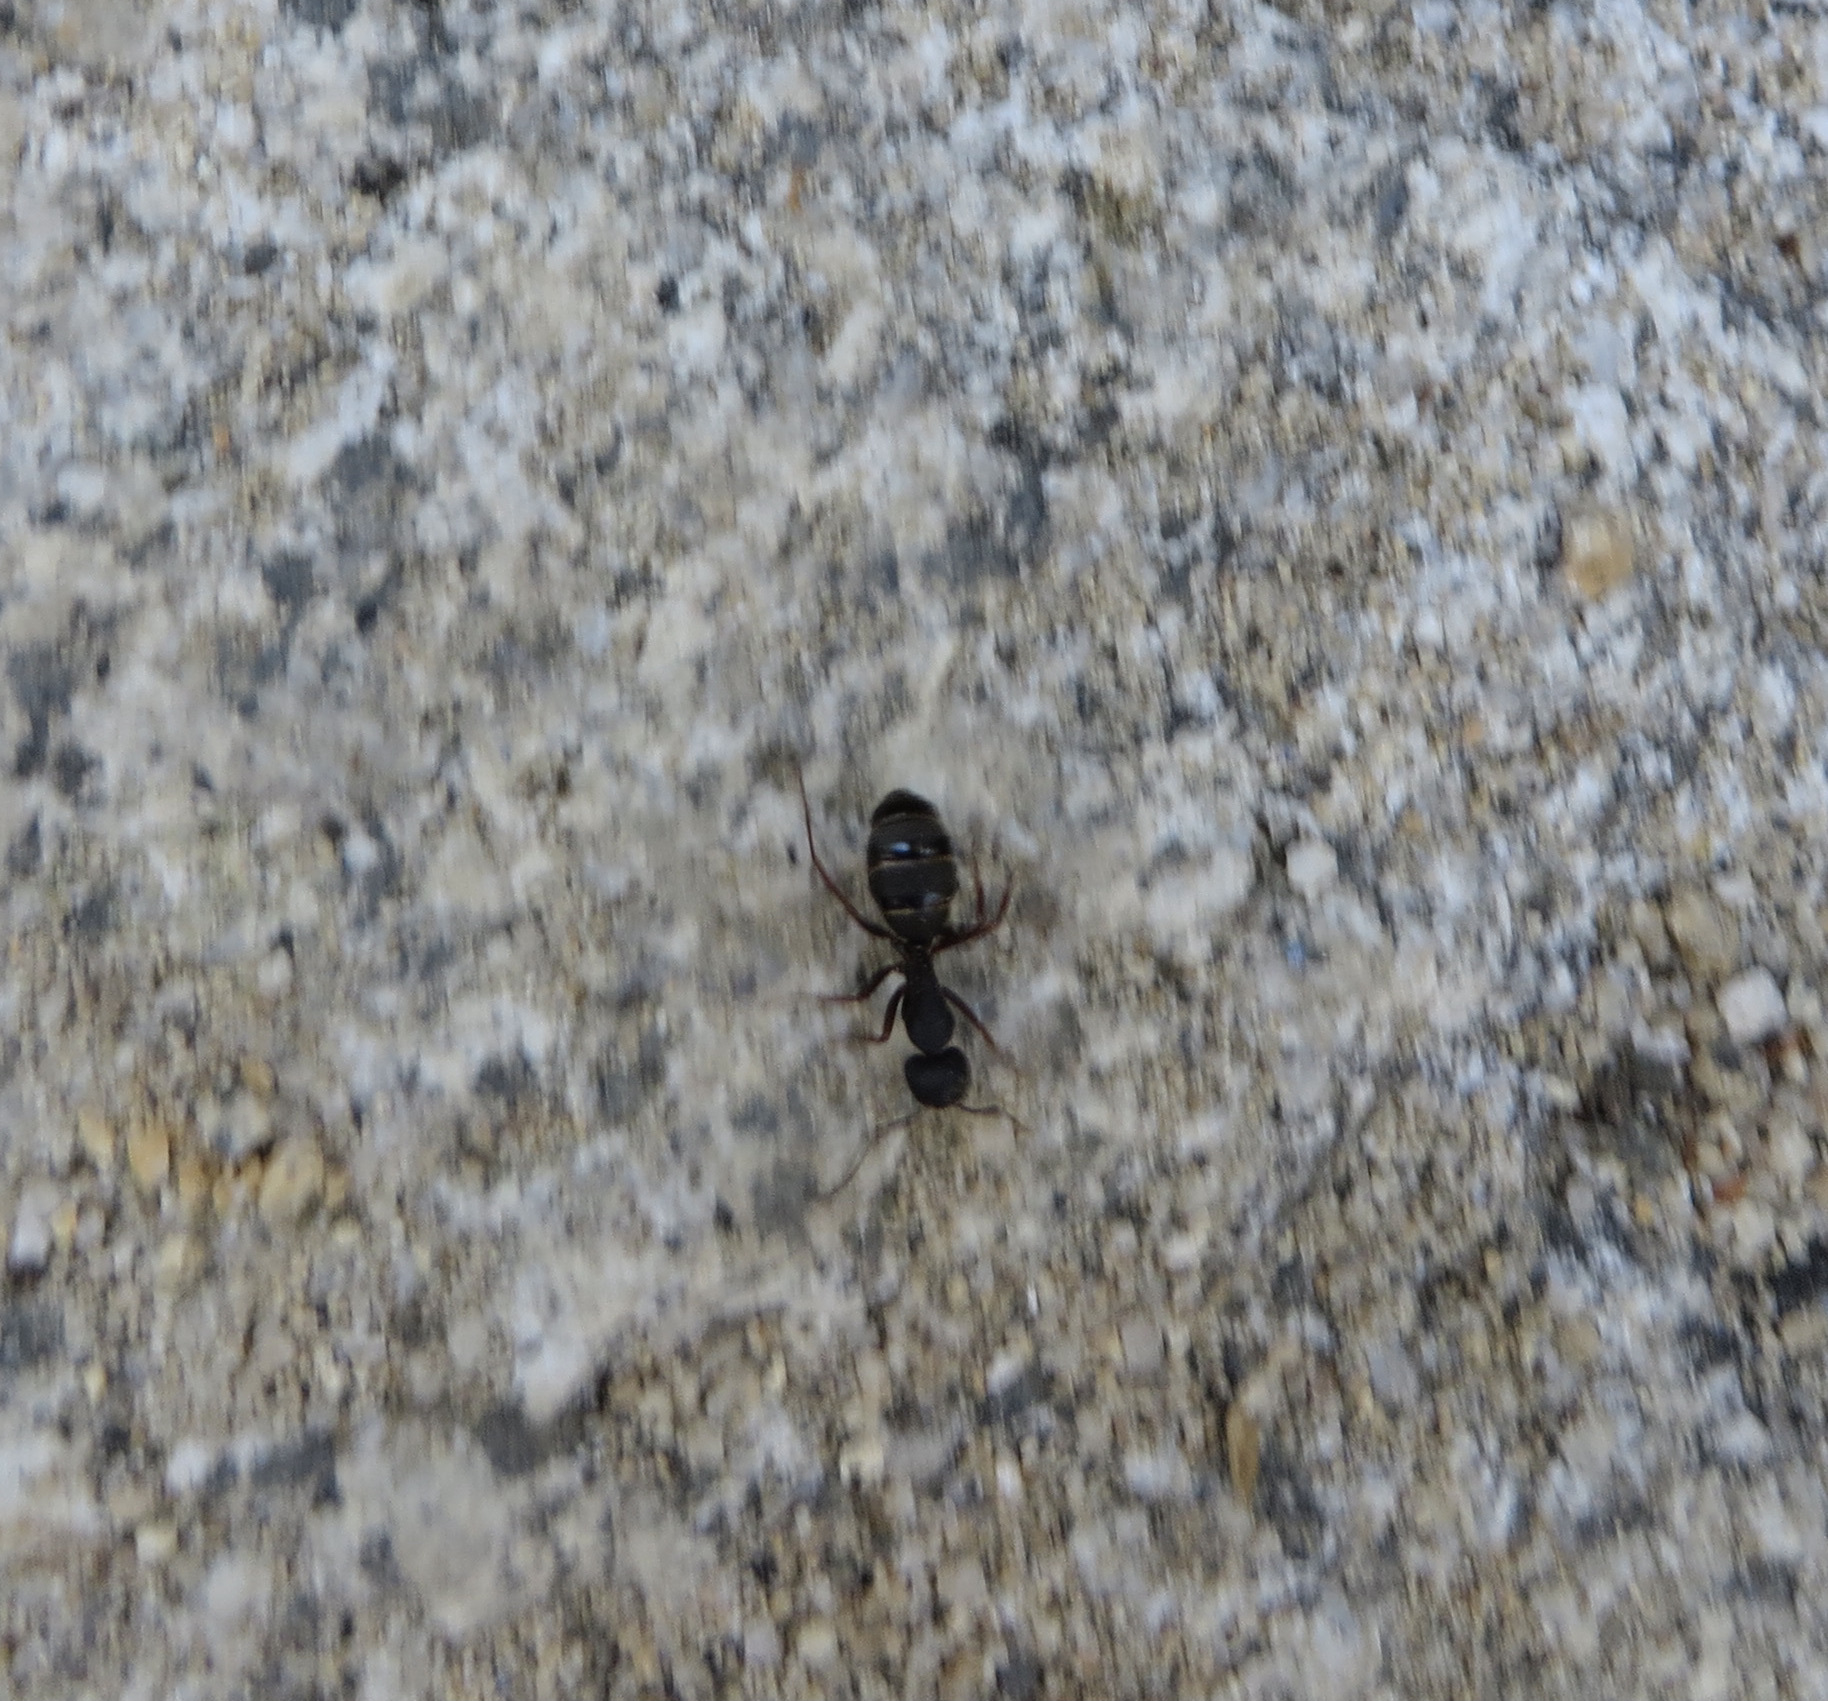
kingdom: Animalia
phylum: Arthropoda
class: Insecta
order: Hymenoptera
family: Formicidae
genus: Camponotus
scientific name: Camponotus modoc
